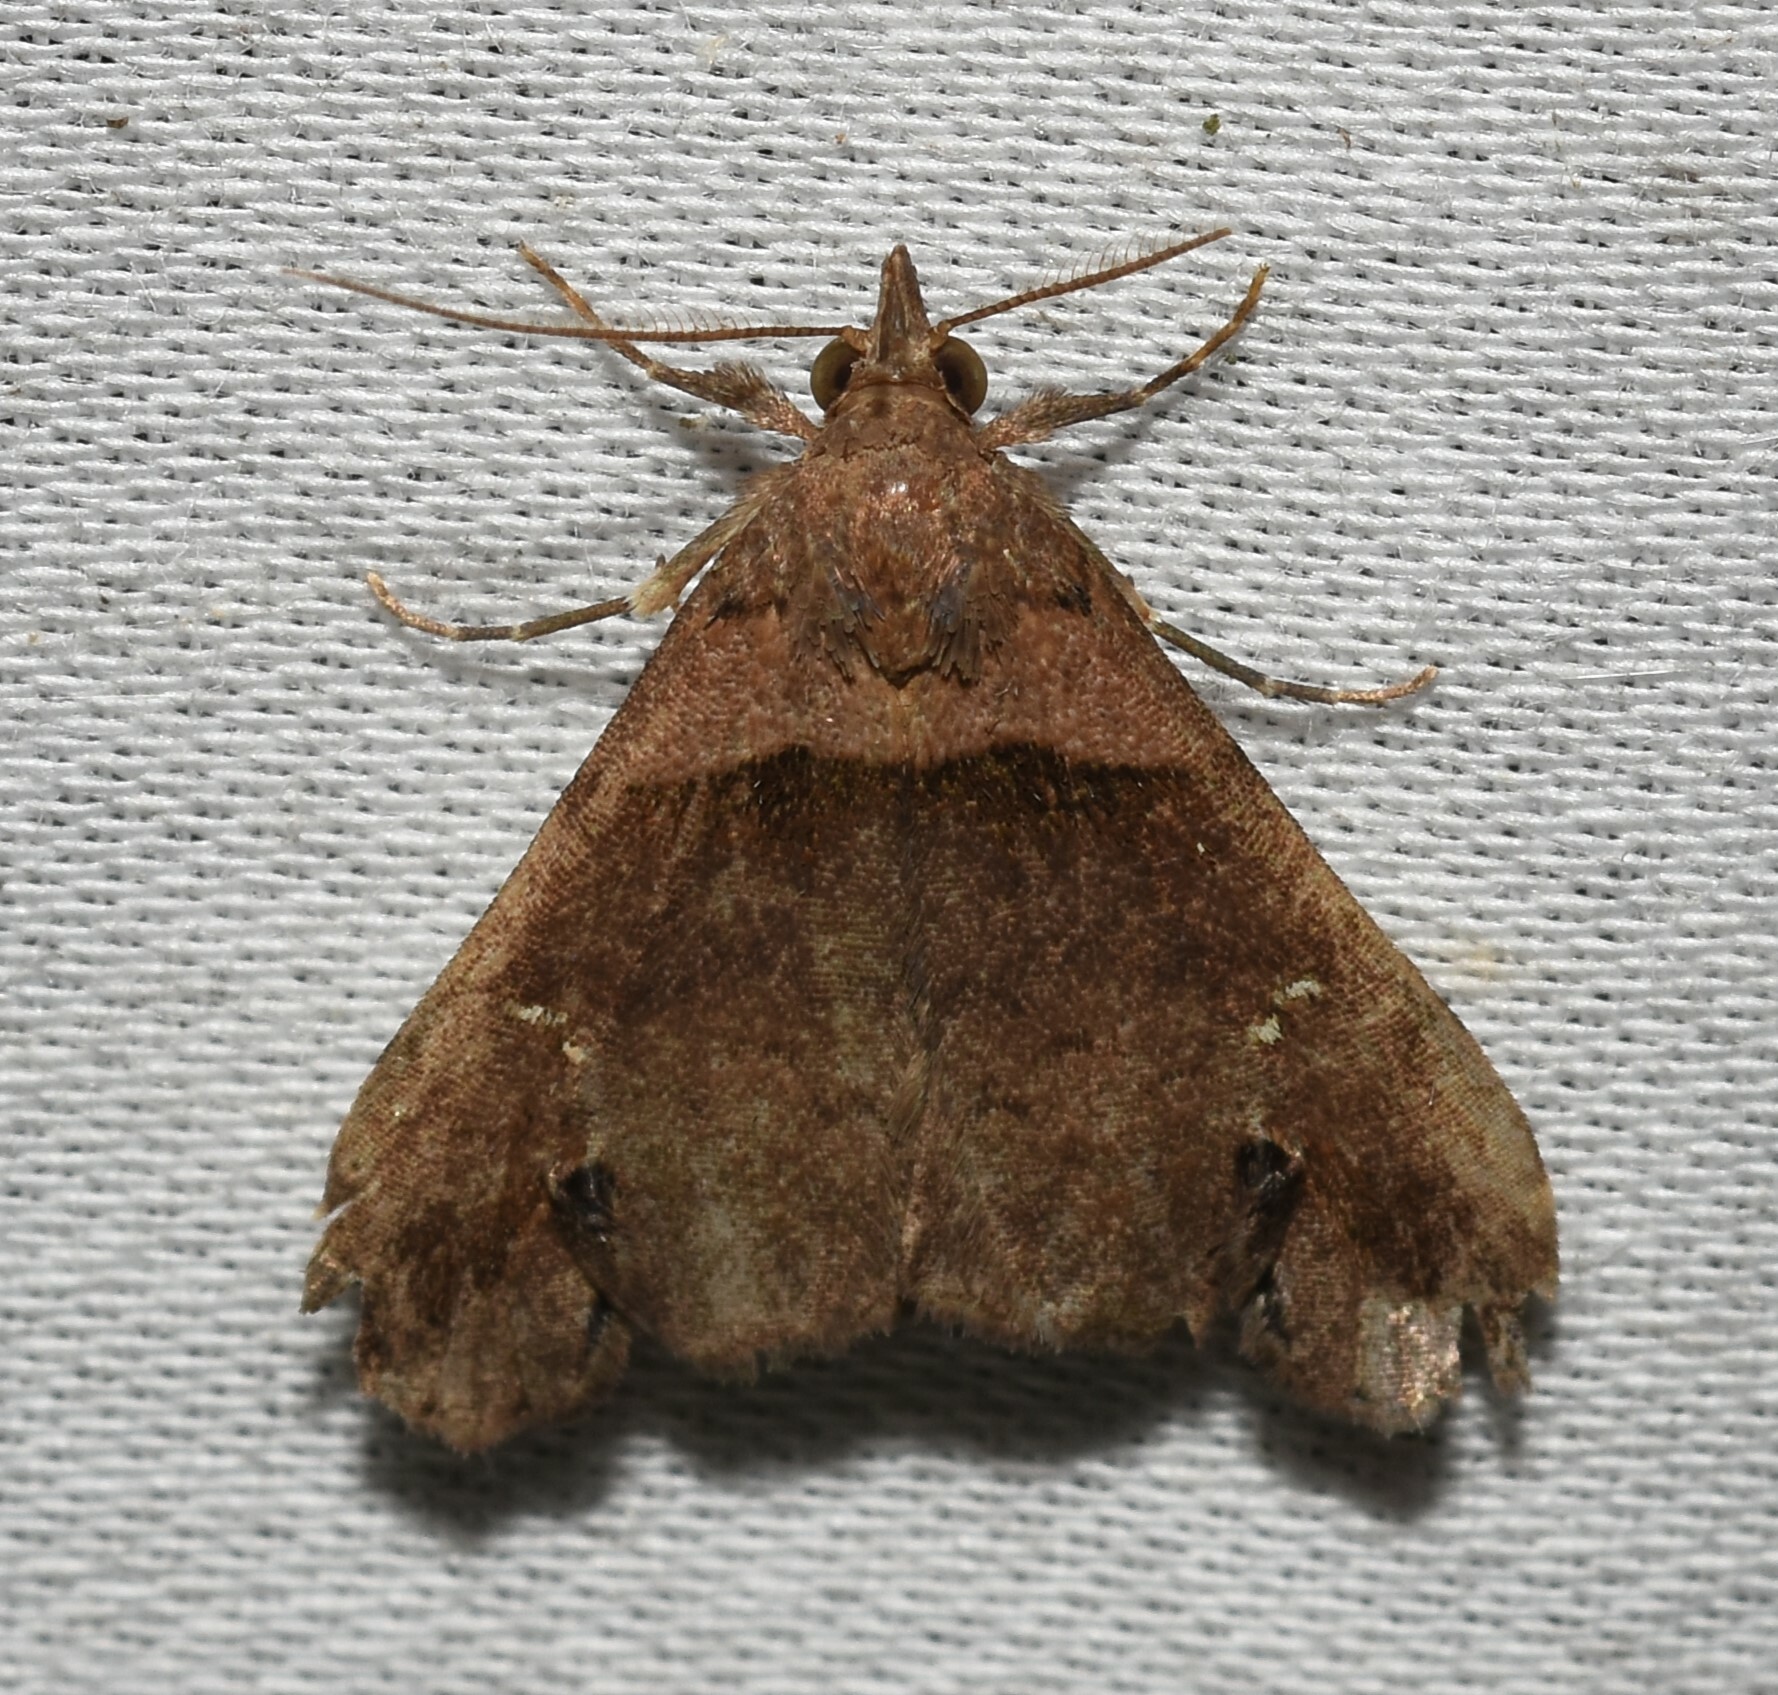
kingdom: Animalia
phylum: Arthropoda
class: Insecta
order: Lepidoptera
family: Erebidae
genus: Lascoria
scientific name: Lascoria ambigualis
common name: Ambiguous moth
